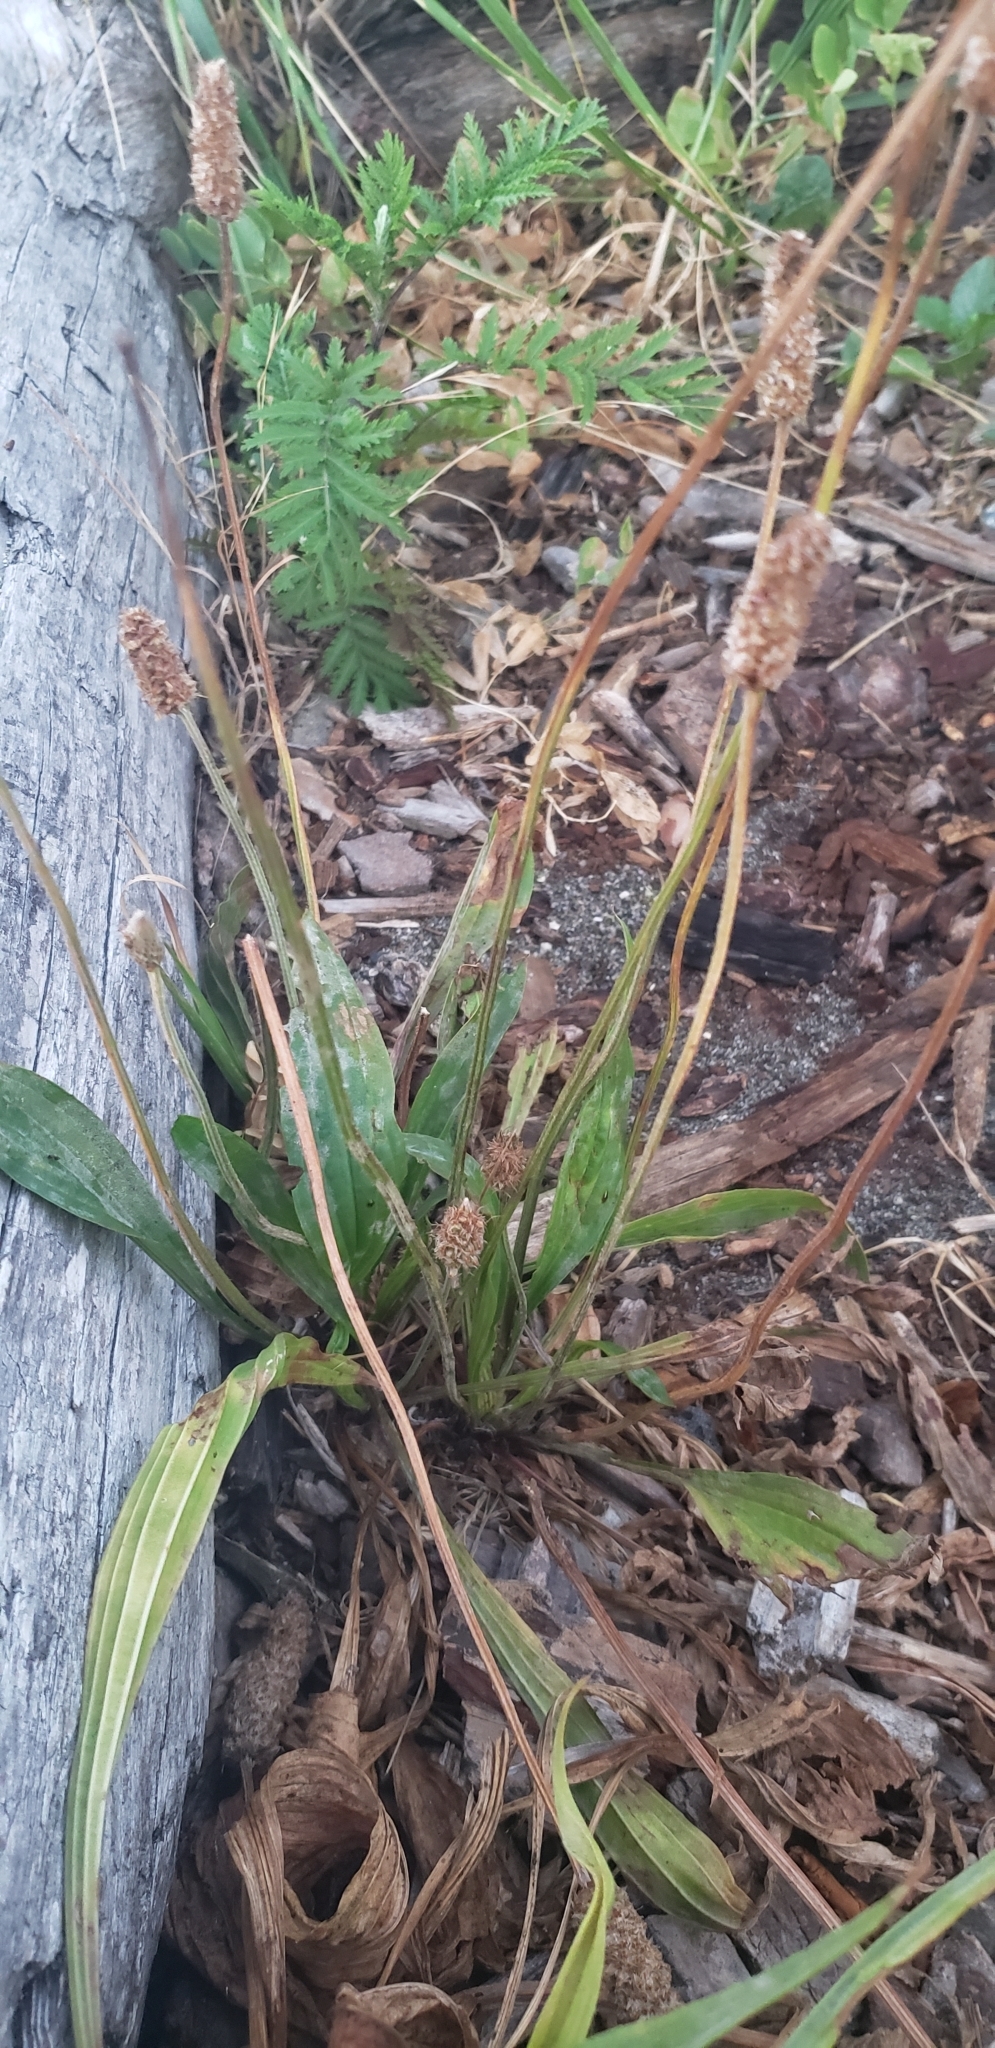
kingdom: Plantae
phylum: Tracheophyta
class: Magnoliopsida
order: Lamiales
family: Plantaginaceae
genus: Plantago
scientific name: Plantago lanceolata
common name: Ribwort plantain
